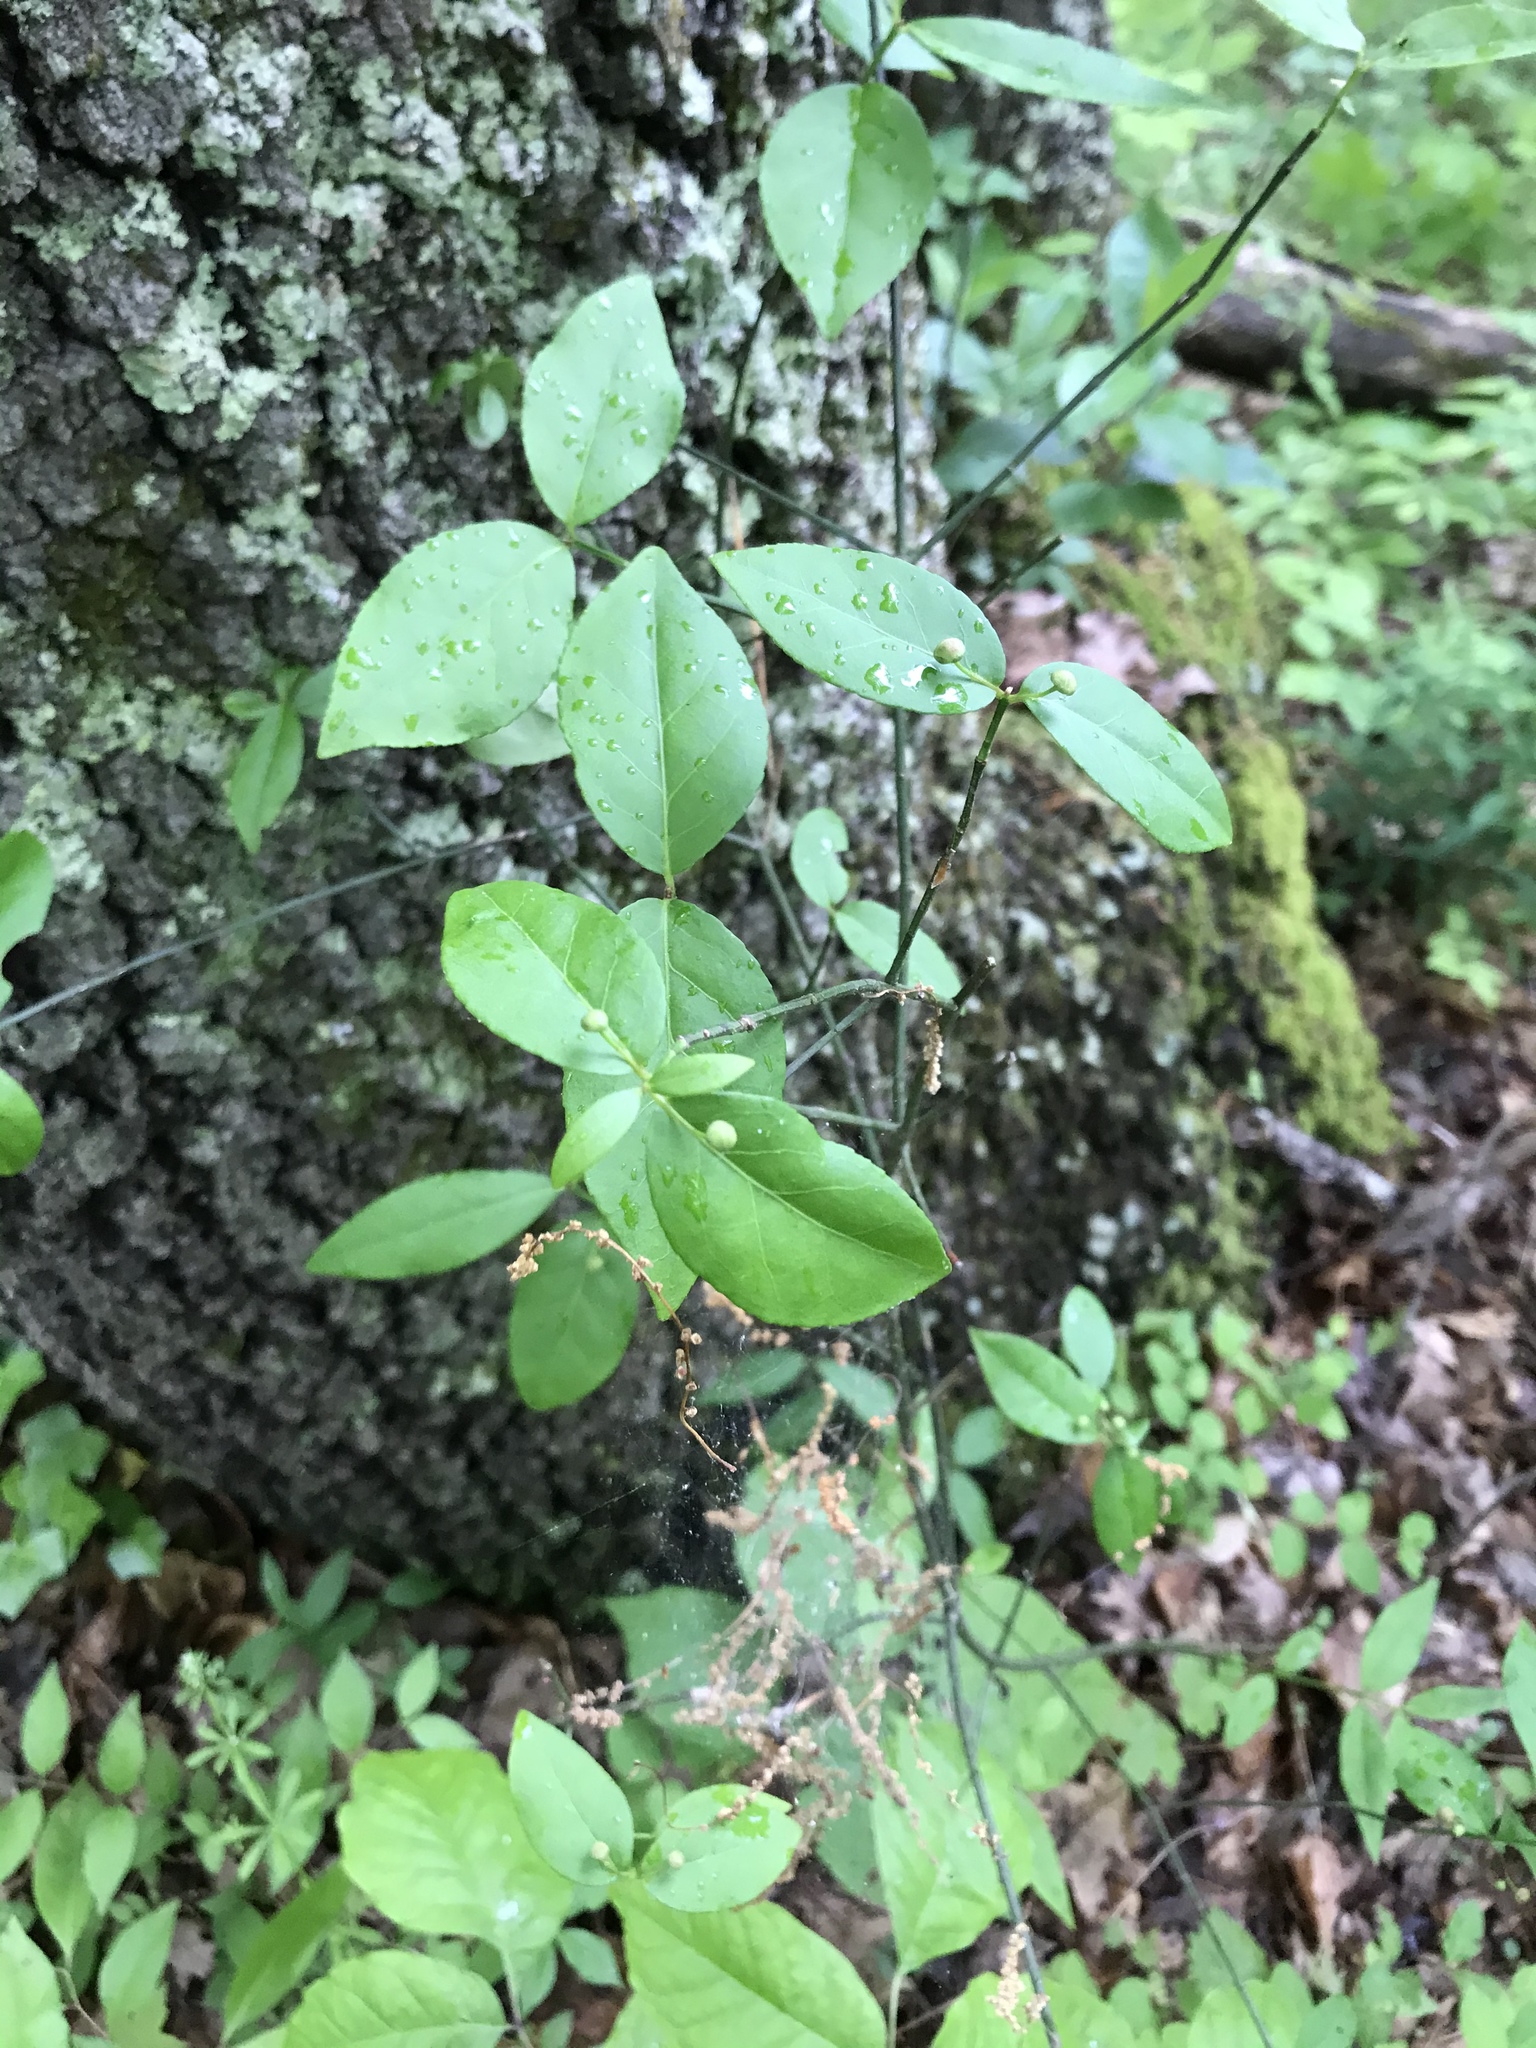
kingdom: Plantae
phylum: Tracheophyta
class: Magnoliopsida
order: Celastrales
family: Celastraceae
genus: Euonymus
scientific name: Euonymus americanus
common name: Bursting-heart
